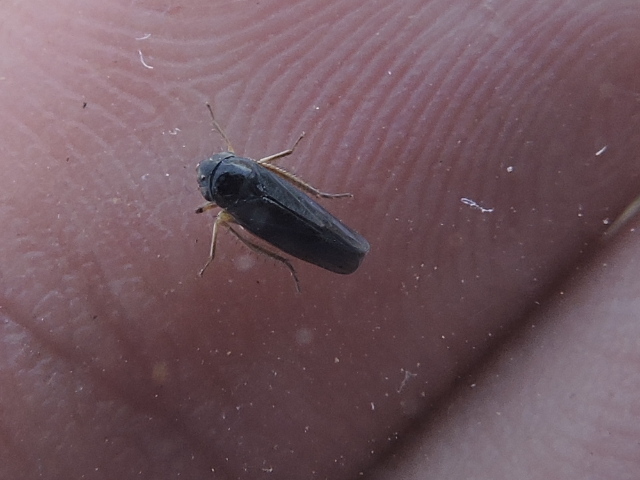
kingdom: Animalia
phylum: Arthropoda
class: Insecta
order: Hemiptera
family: Cicadellidae
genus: Ciminius
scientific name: Ciminius hartii
